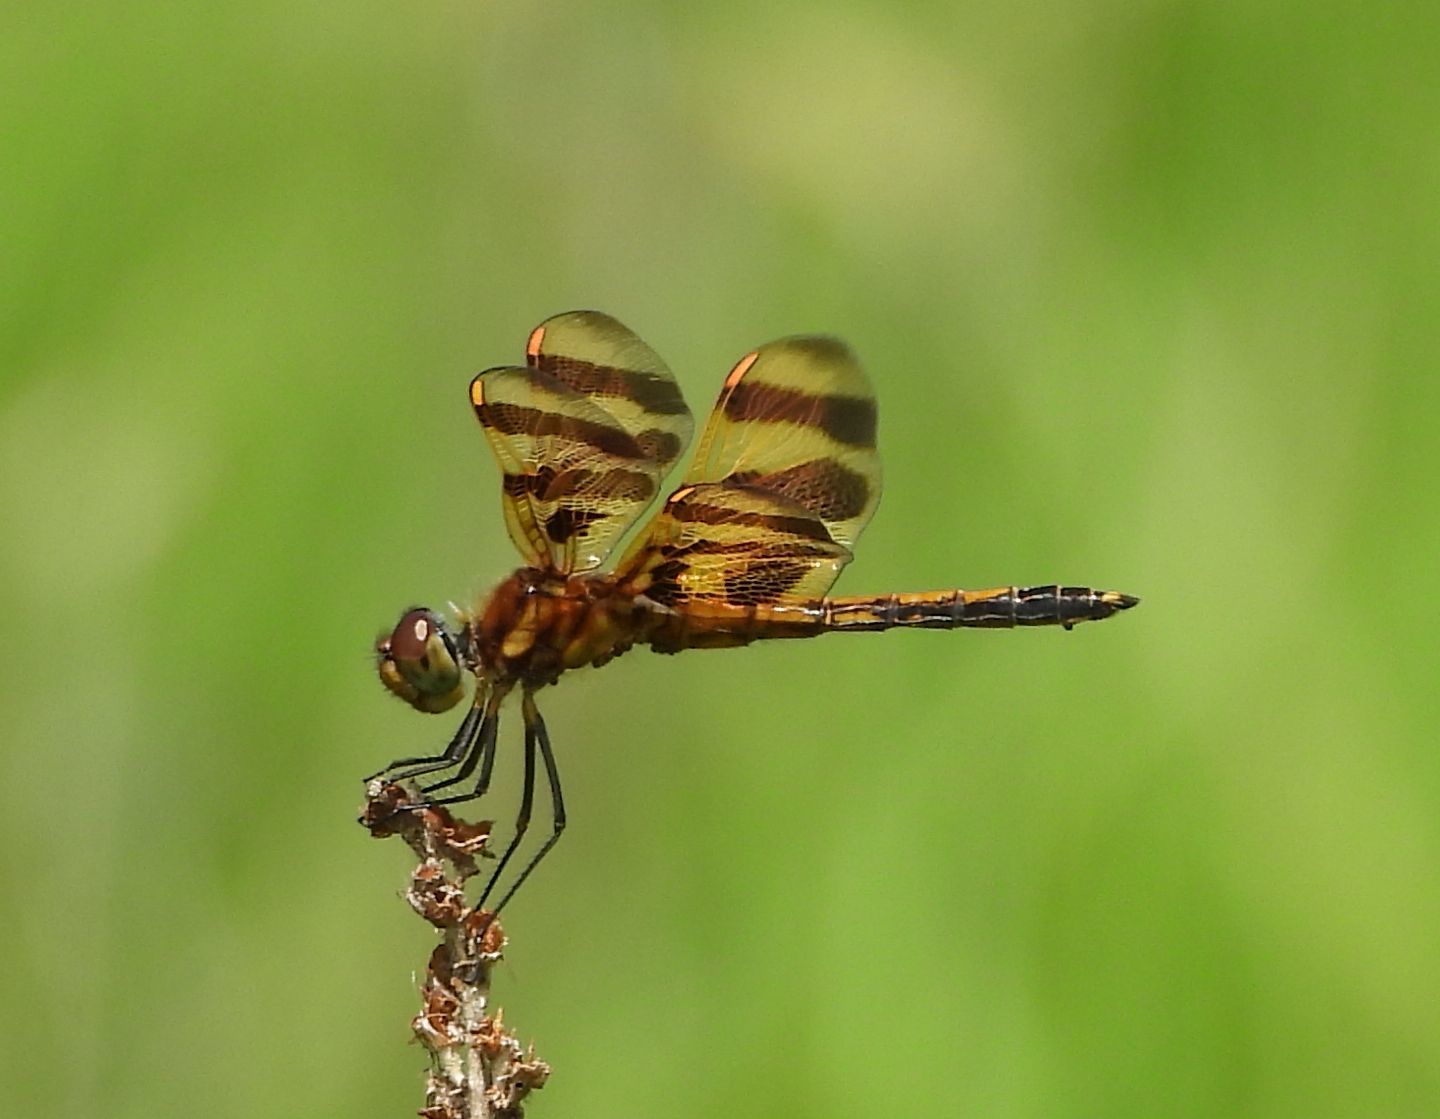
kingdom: Animalia
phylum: Arthropoda
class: Insecta
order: Odonata
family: Libellulidae
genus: Celithemis
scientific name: Celithemis eponina
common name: Halloween pennant
